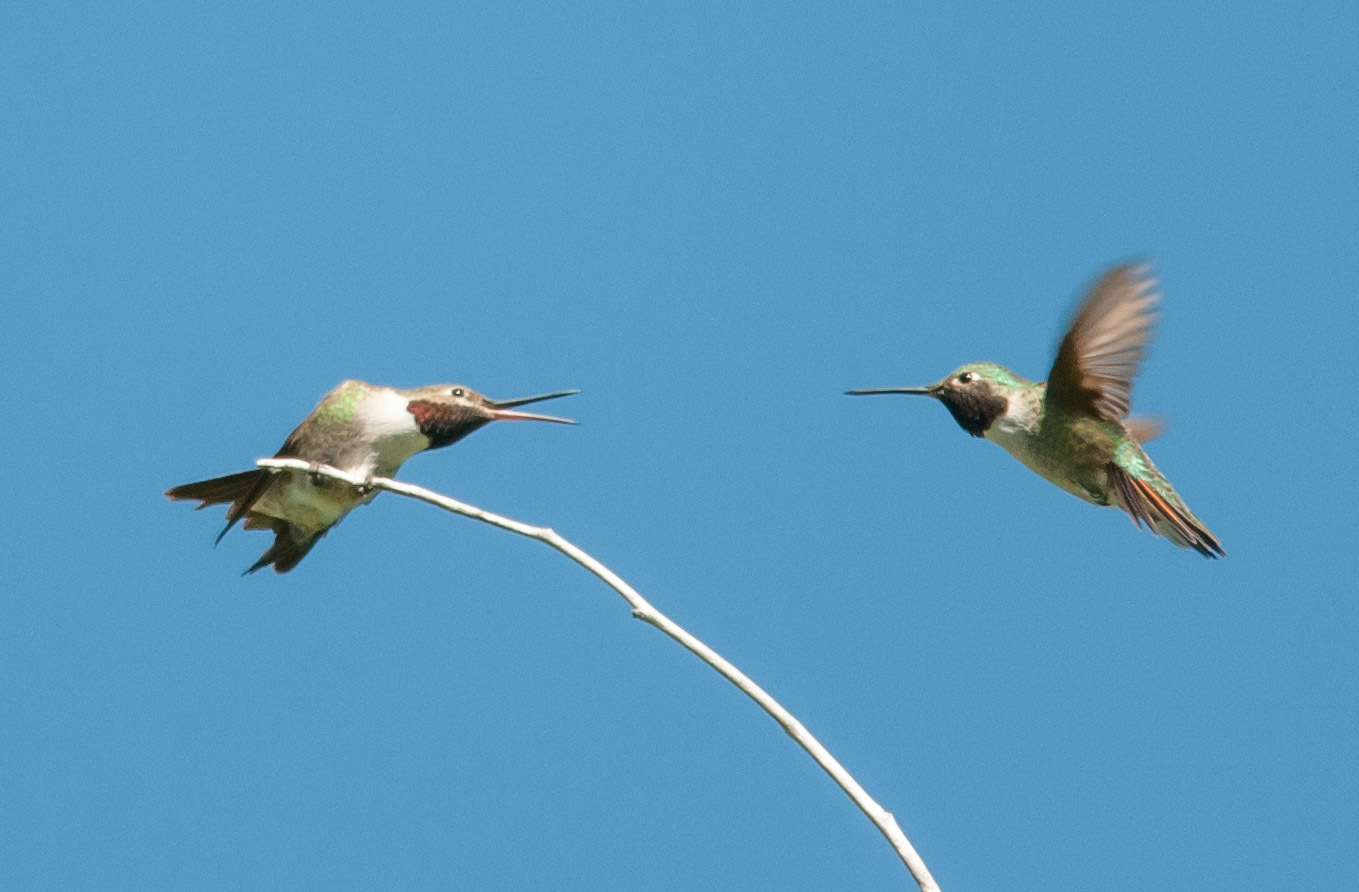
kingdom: Animalia
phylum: Chordata
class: Aves
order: Apodiformes
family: Trochilidae
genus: Selasphorus
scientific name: Selasphorus platycercus
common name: Broad-tailed hummingbird
